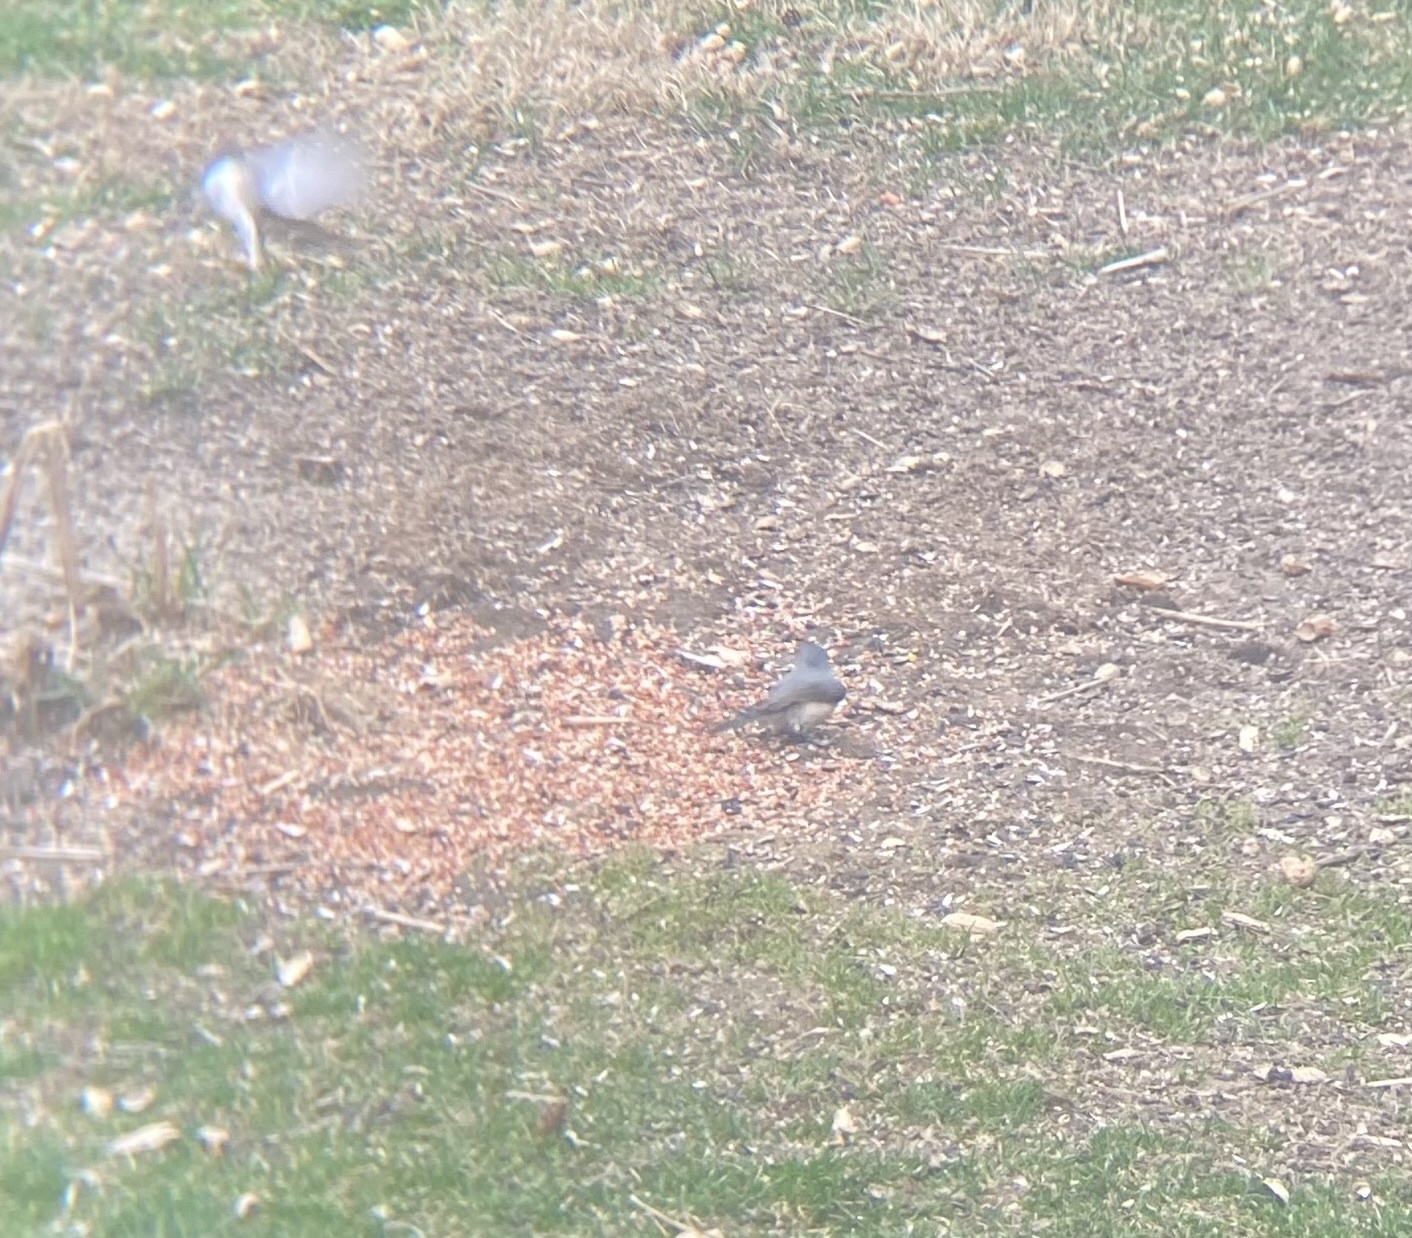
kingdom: Animalia
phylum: Chordata
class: Aves
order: Passeriformes
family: Paridae
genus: Baeolophus
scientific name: Baeolophus bicolor
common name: Tufted titmouse
